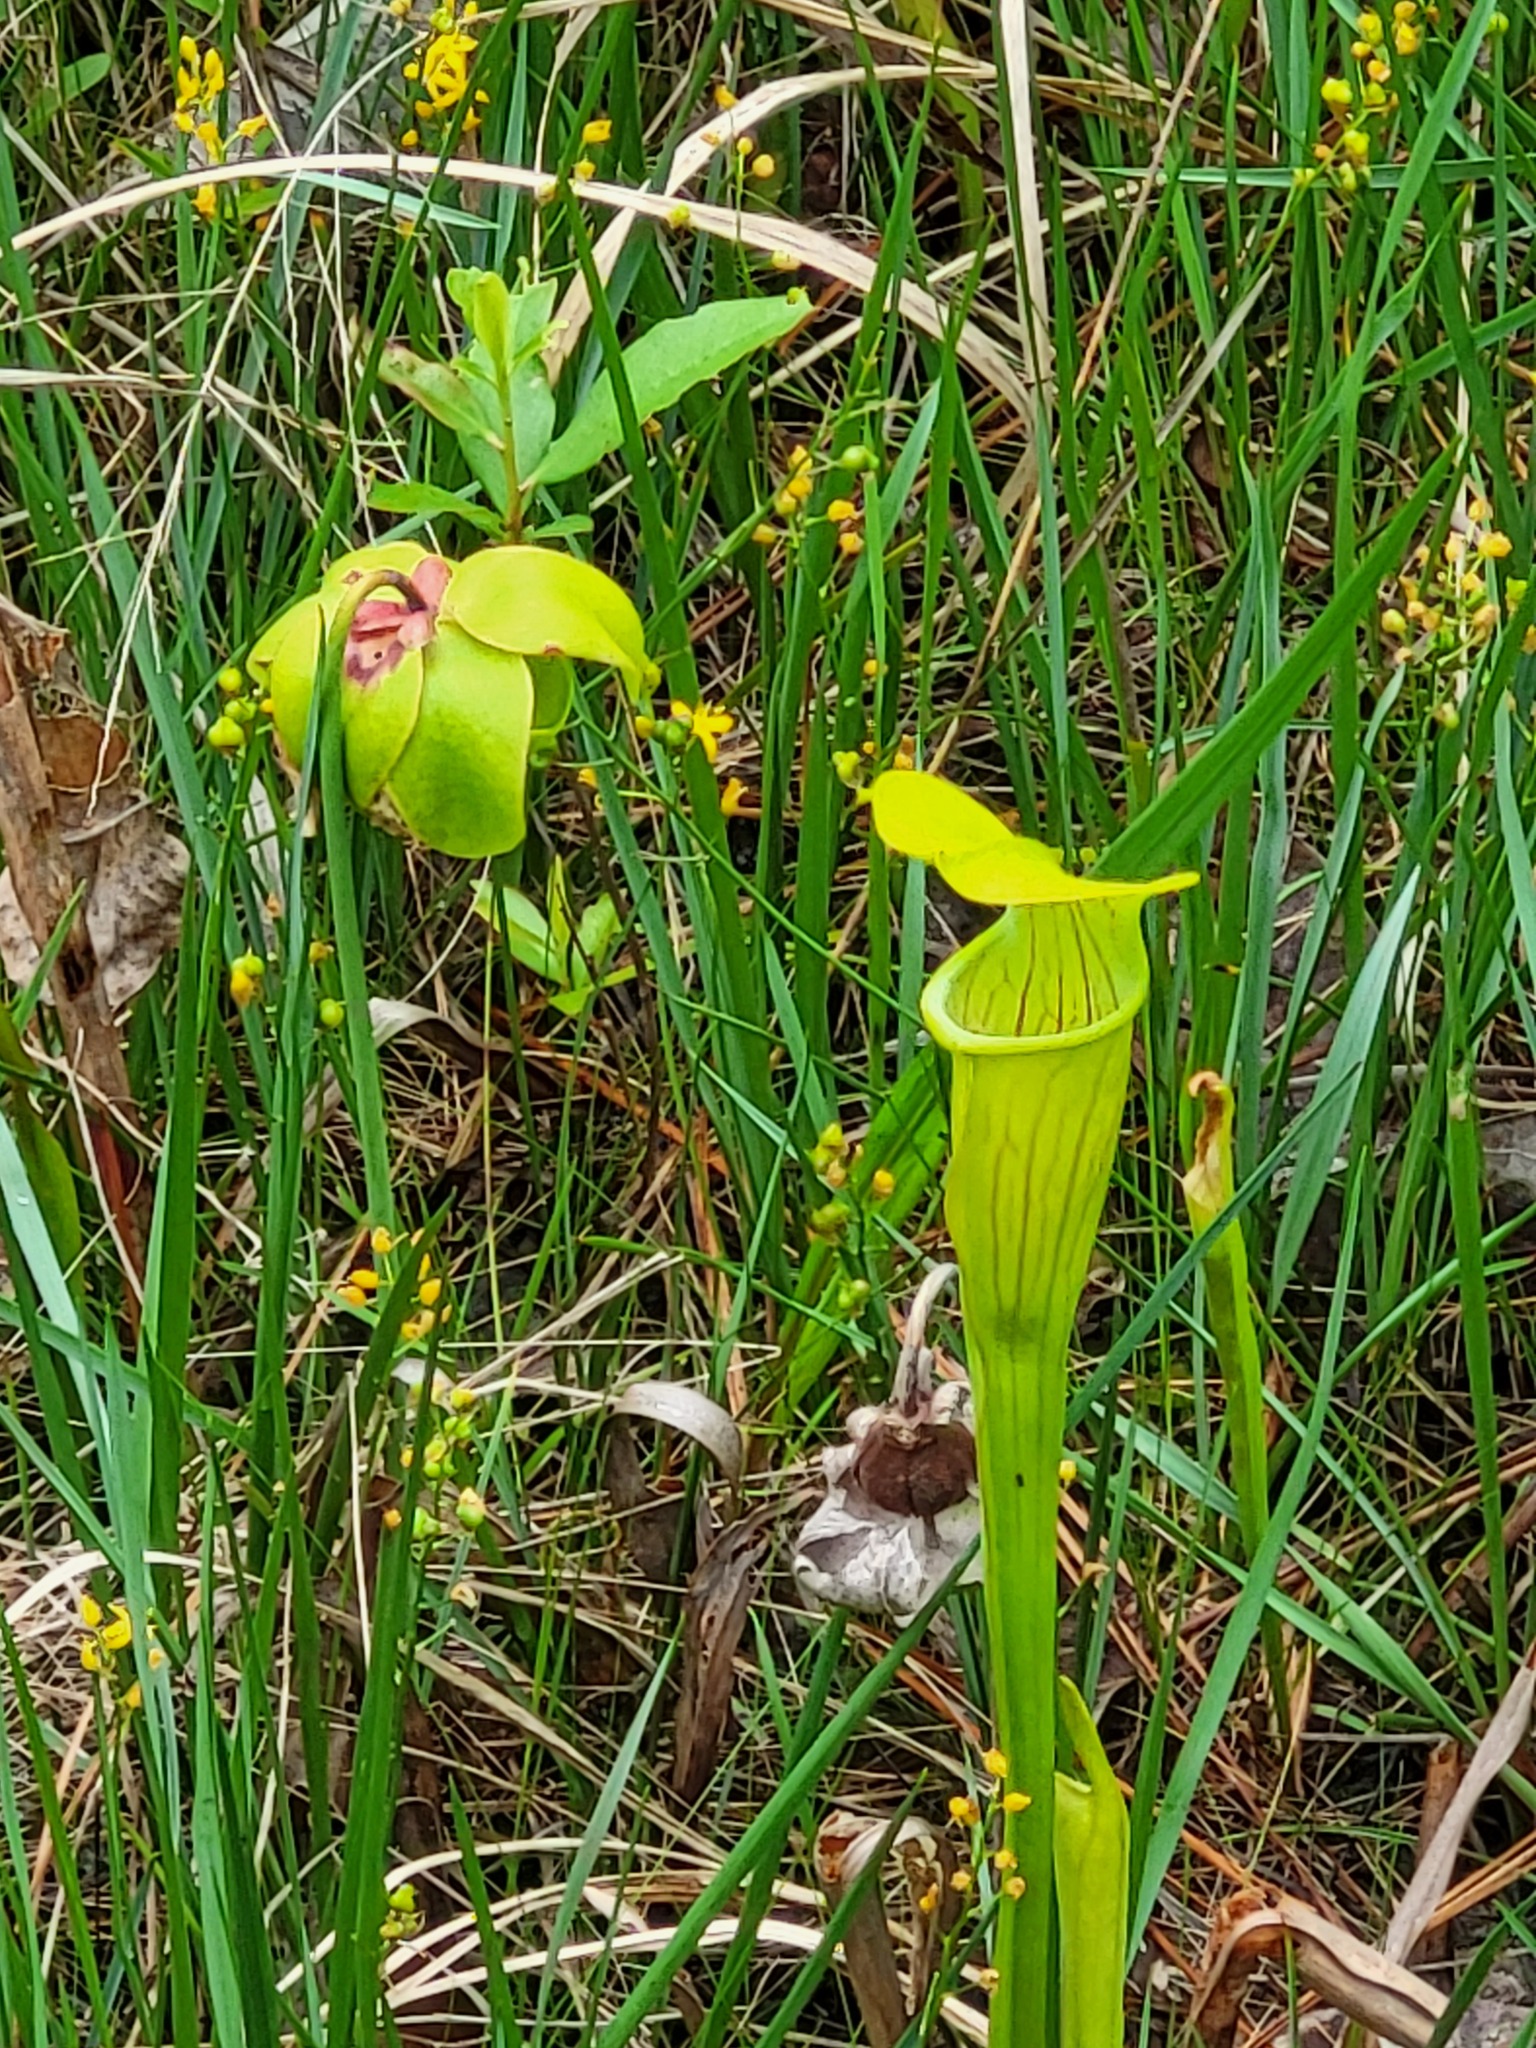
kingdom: Plantae
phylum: Tracheophyta
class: Magnoliopsida
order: Ericales
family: Sarraceniaceae
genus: Sarracenia
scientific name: Sarracenia alata
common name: Yellow trumpets
